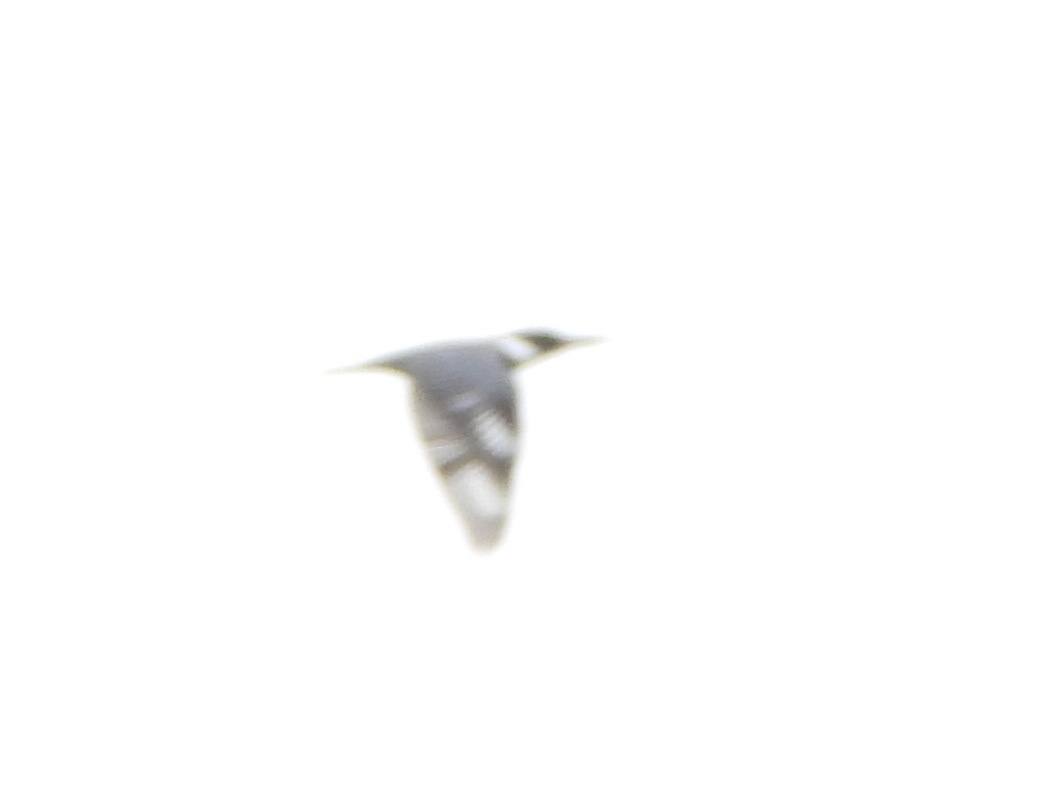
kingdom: Animalia
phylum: Chordata
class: Aves
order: Coraciiformes
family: Alcedinidae
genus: Megaceryle
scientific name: Megaceryle alcyon
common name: Belted kingfisher
